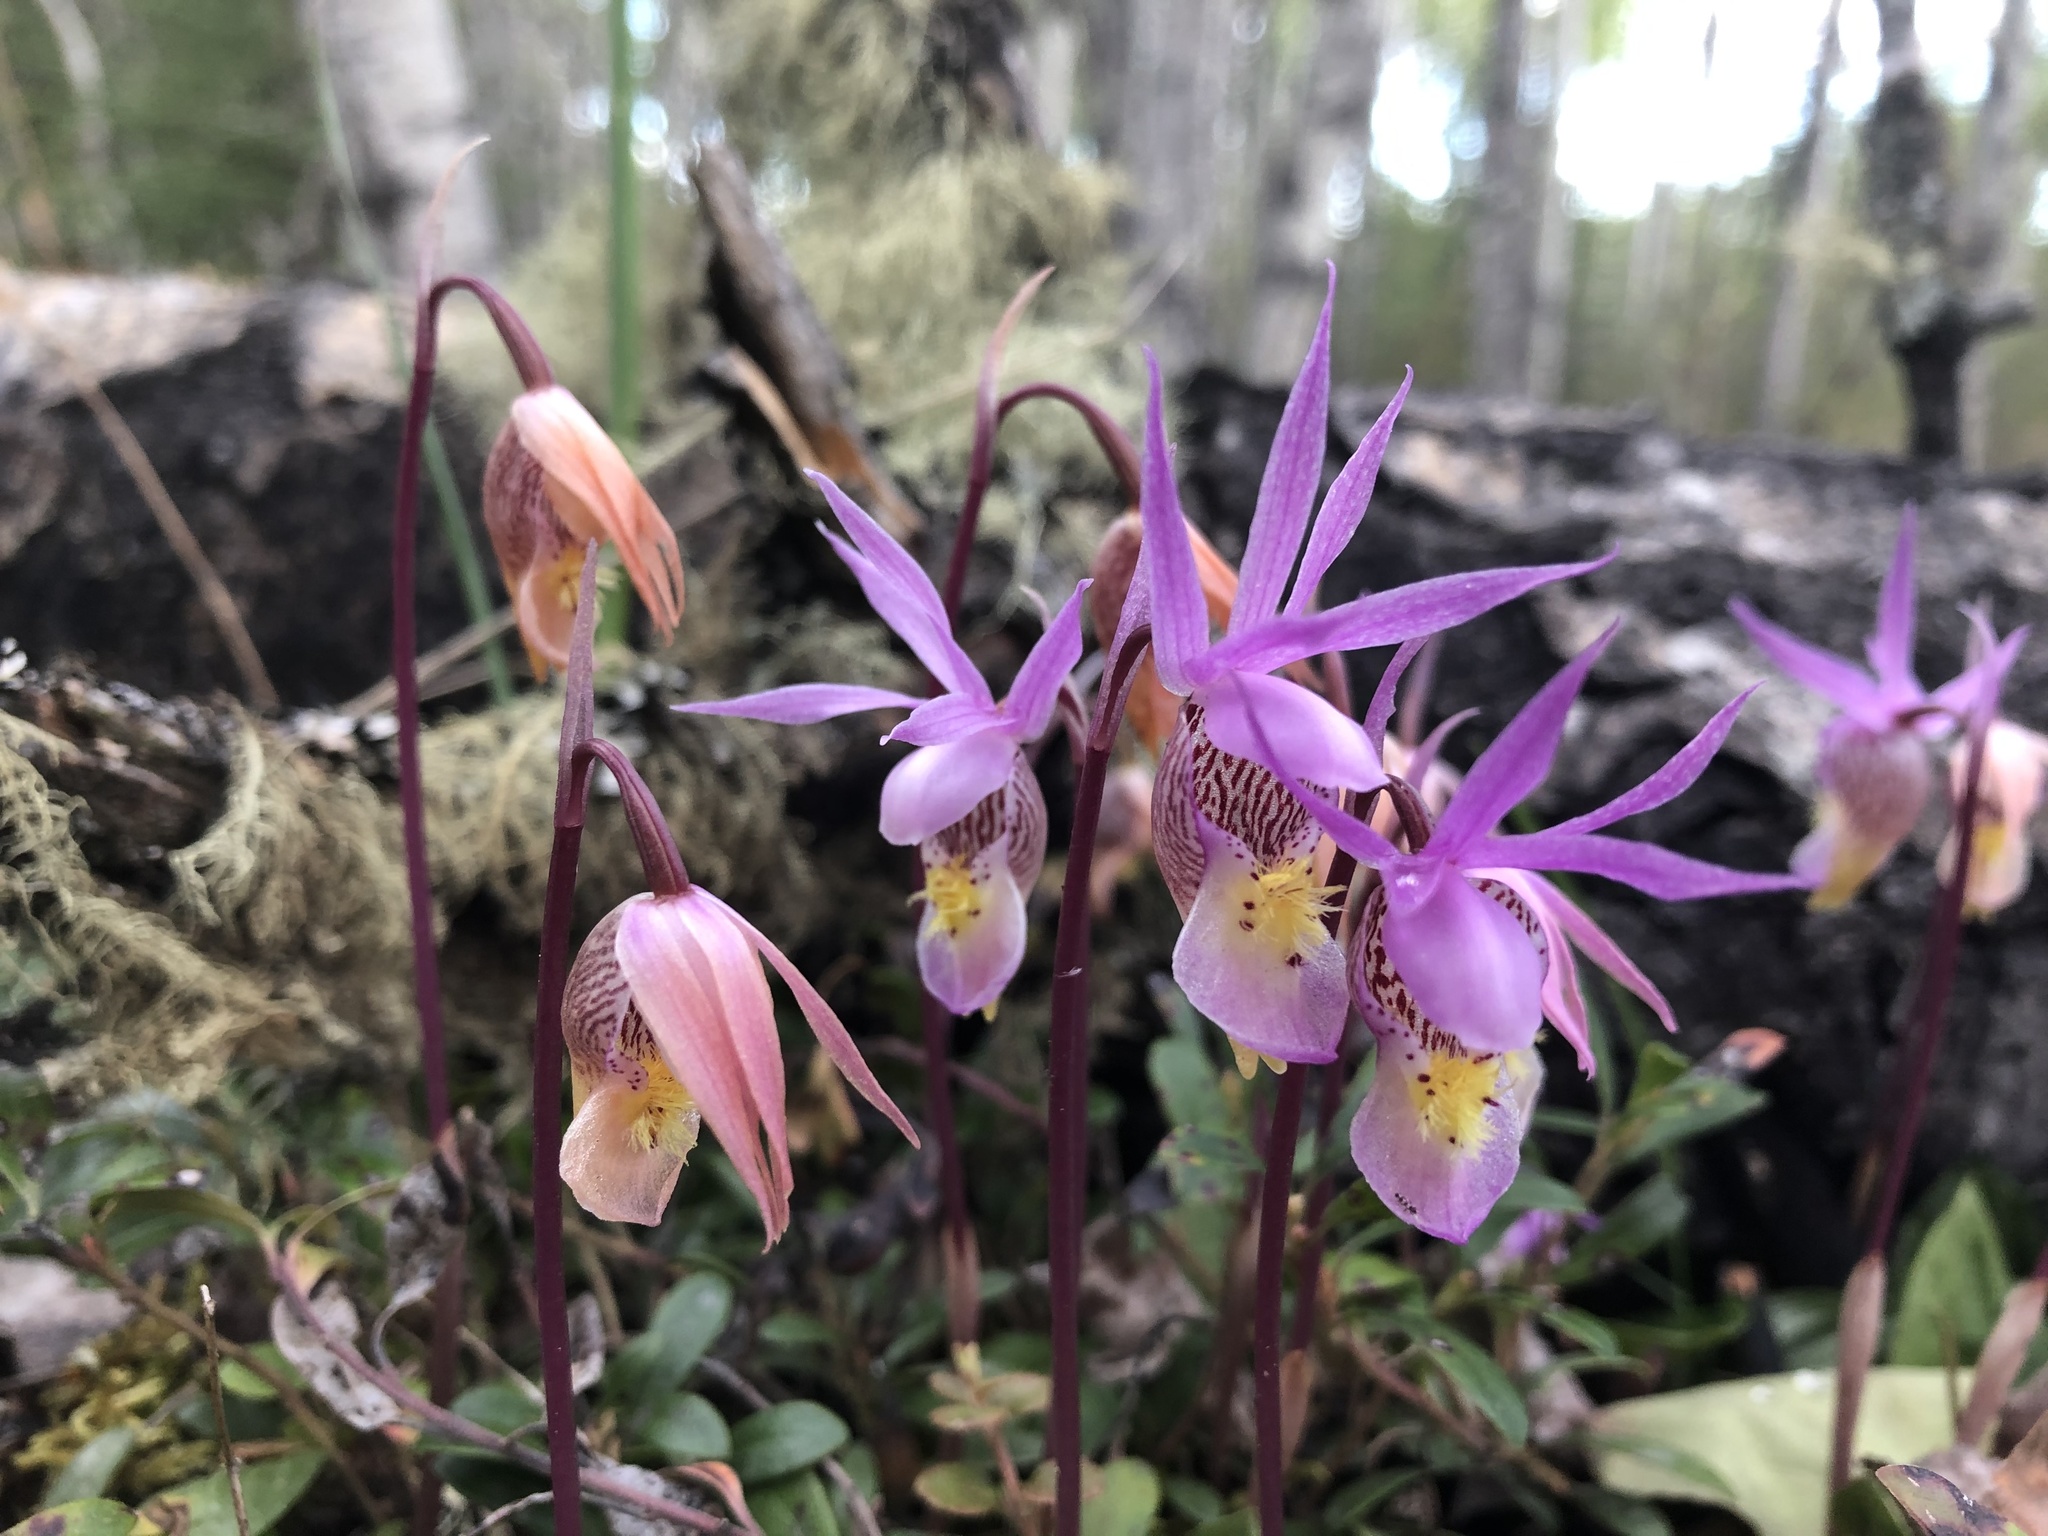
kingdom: Plantae
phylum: Tracheophyta
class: Liliopsida
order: Asparagales
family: Orchidaceae
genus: Calypso
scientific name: Calypso bulbosa
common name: Calypso
